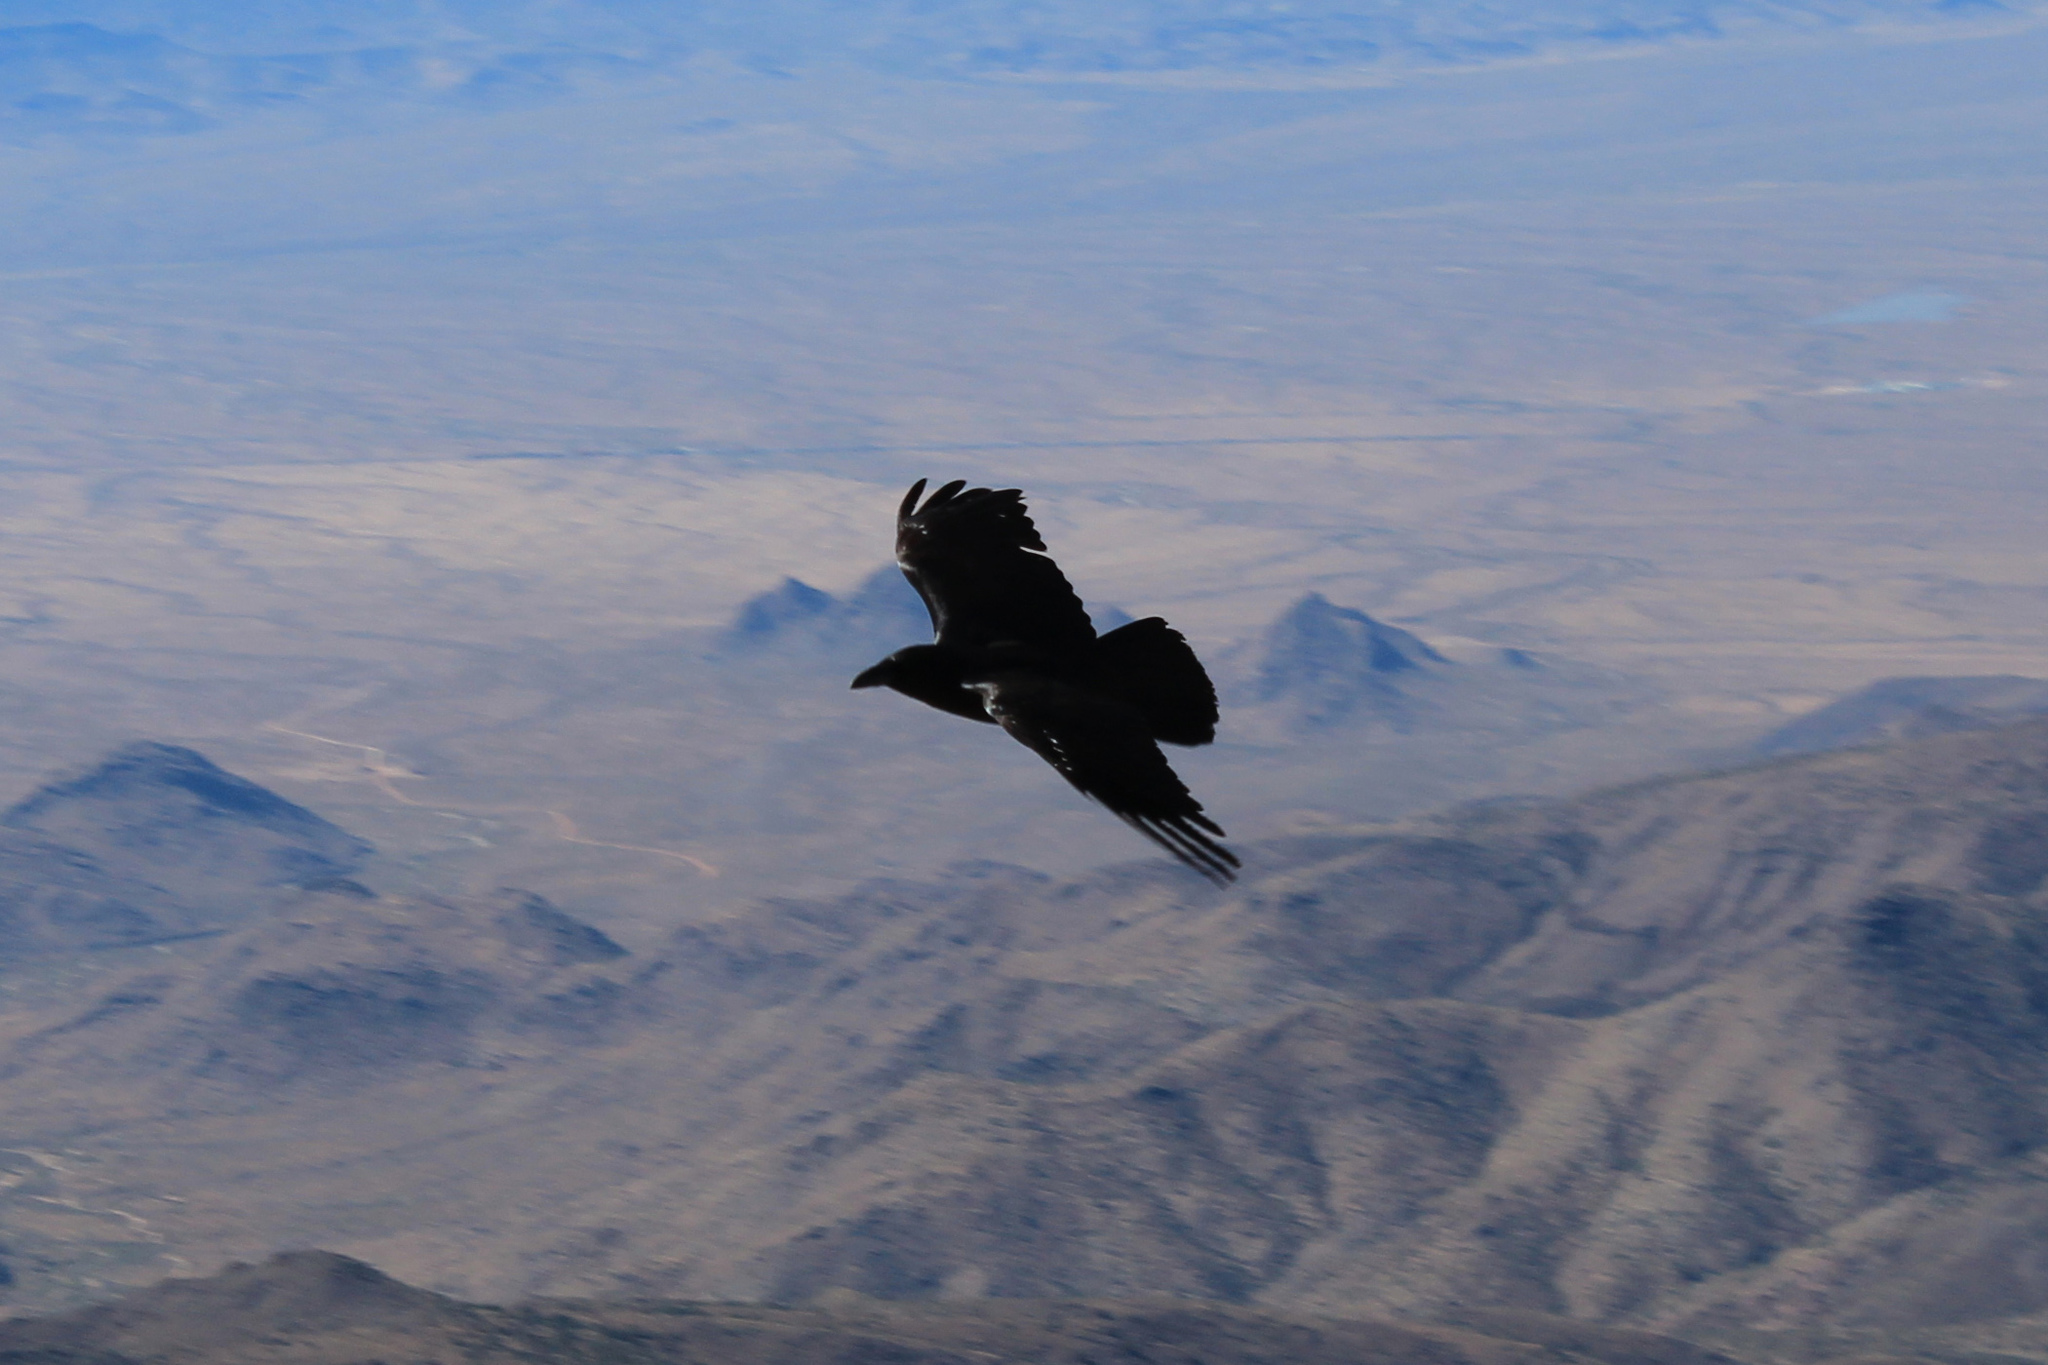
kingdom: Animalia
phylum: Chordata
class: Aves
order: Passeriformes
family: Corvidae
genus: Corvus
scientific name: Corvus corax
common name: Common raven
